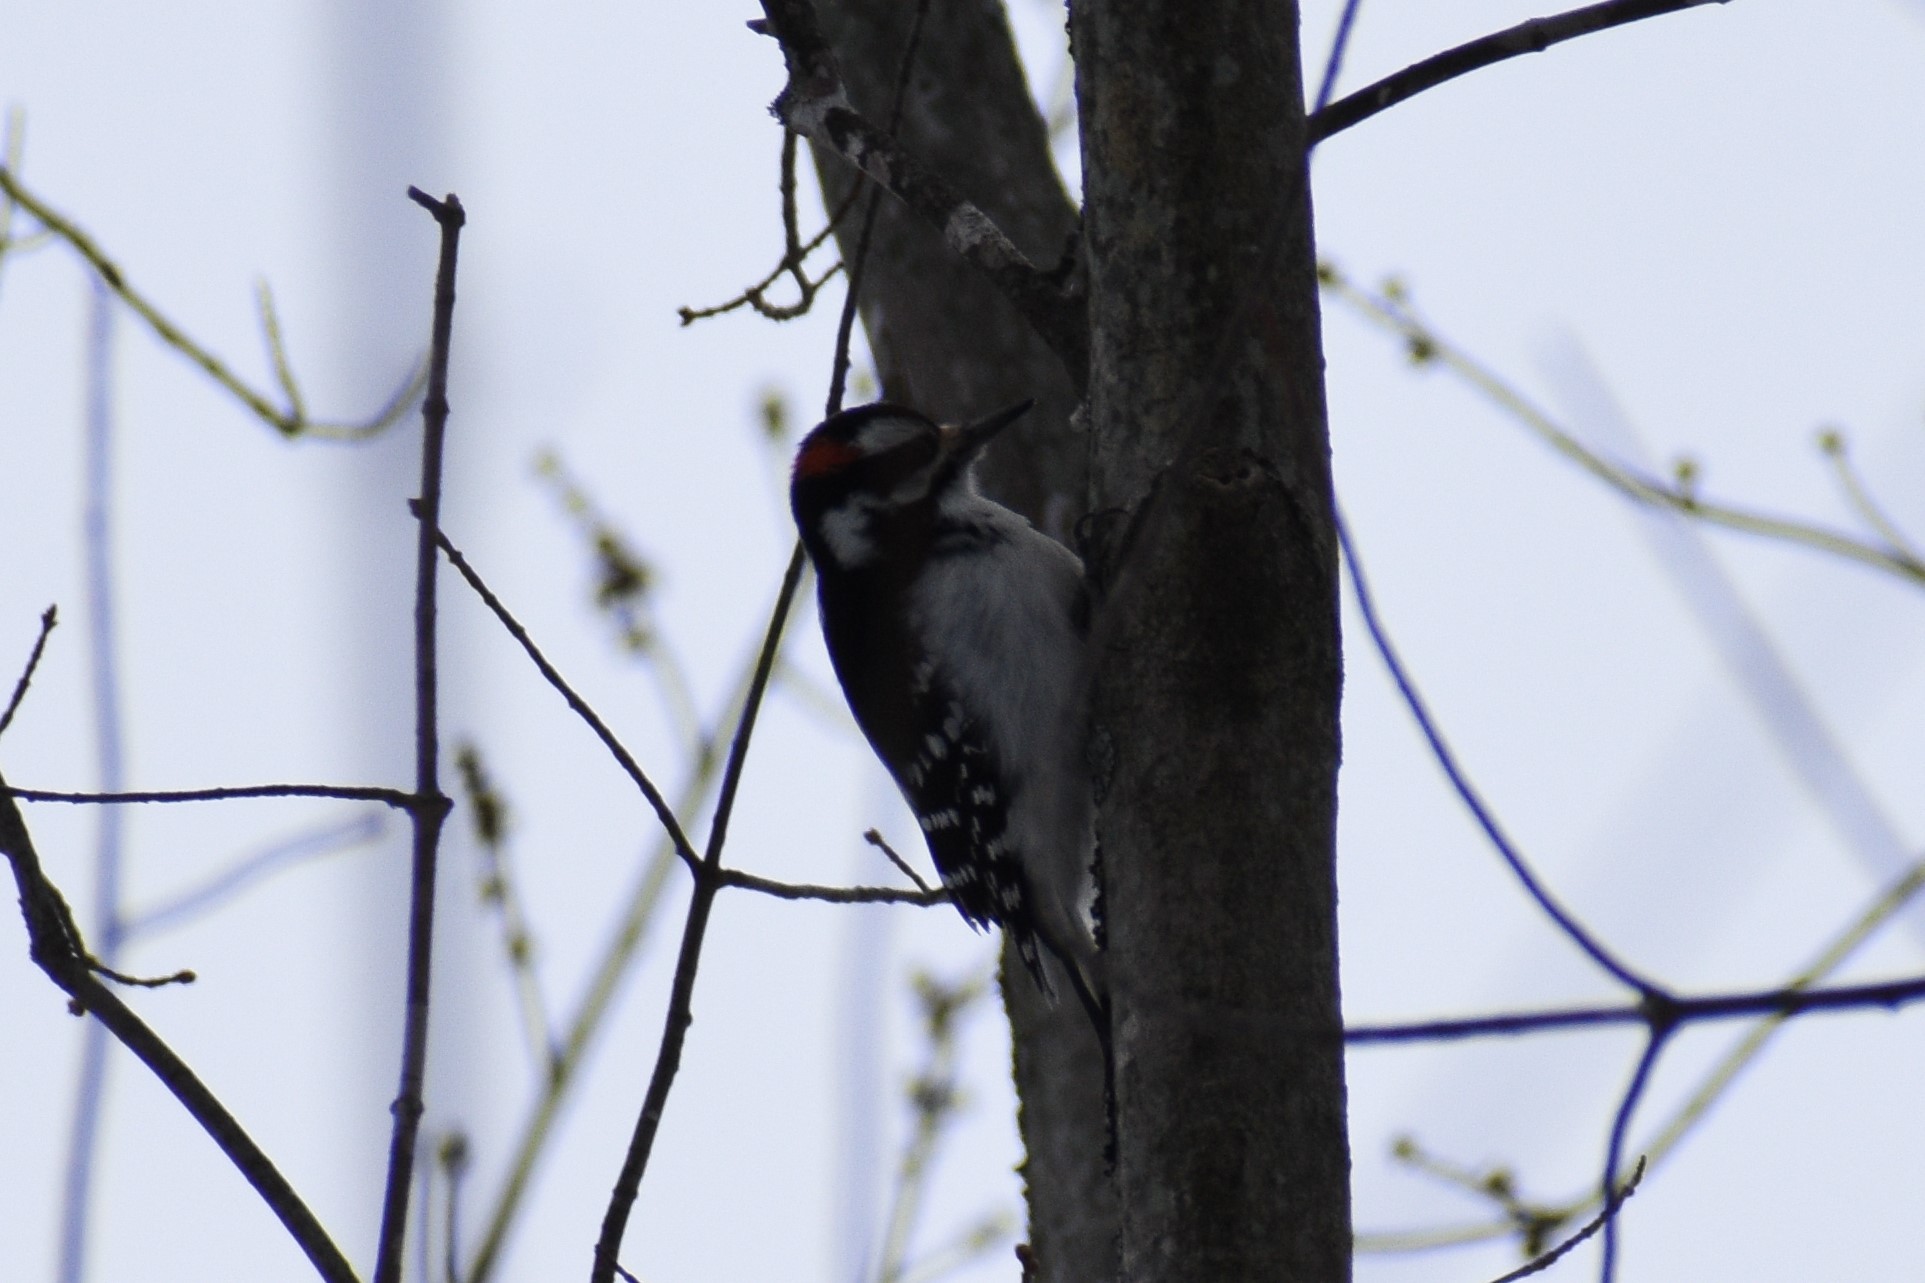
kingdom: Animalia
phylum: Chordata
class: Aves
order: Piciformes
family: Picidae
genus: Leuconotopicus
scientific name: Leuconotopicus villosus
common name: Hairy woodpecker
